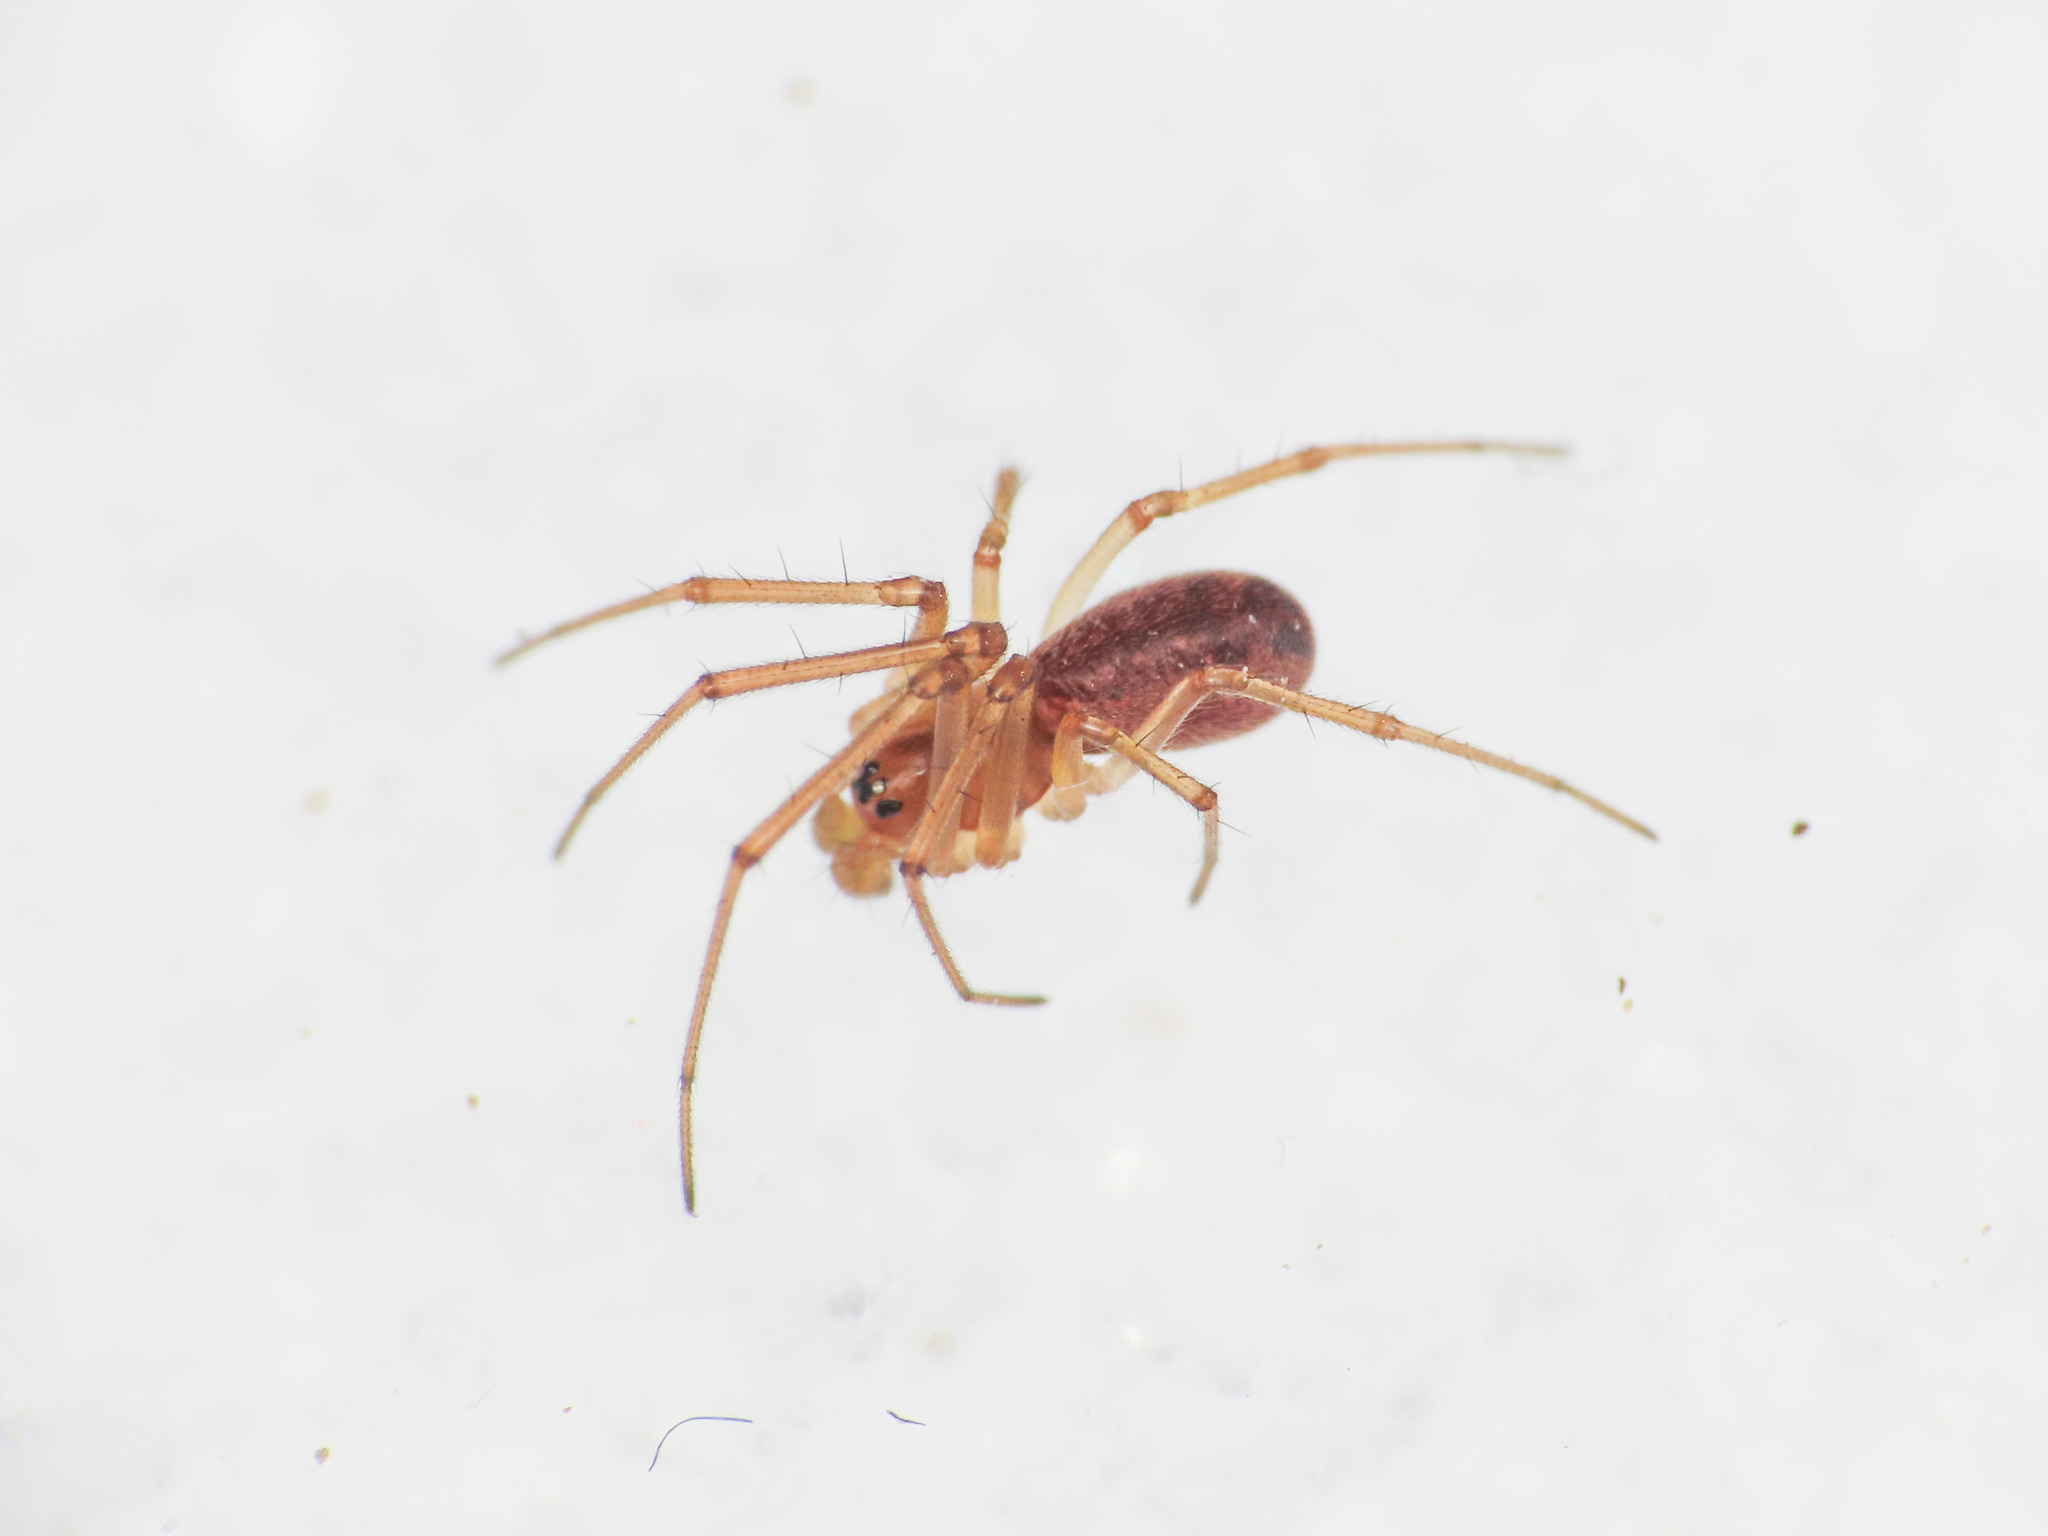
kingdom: Animalia
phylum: Arthropoda
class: Arachnida
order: Araneae
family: Linyphiidae
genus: Neriene
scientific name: Neriene peltata
